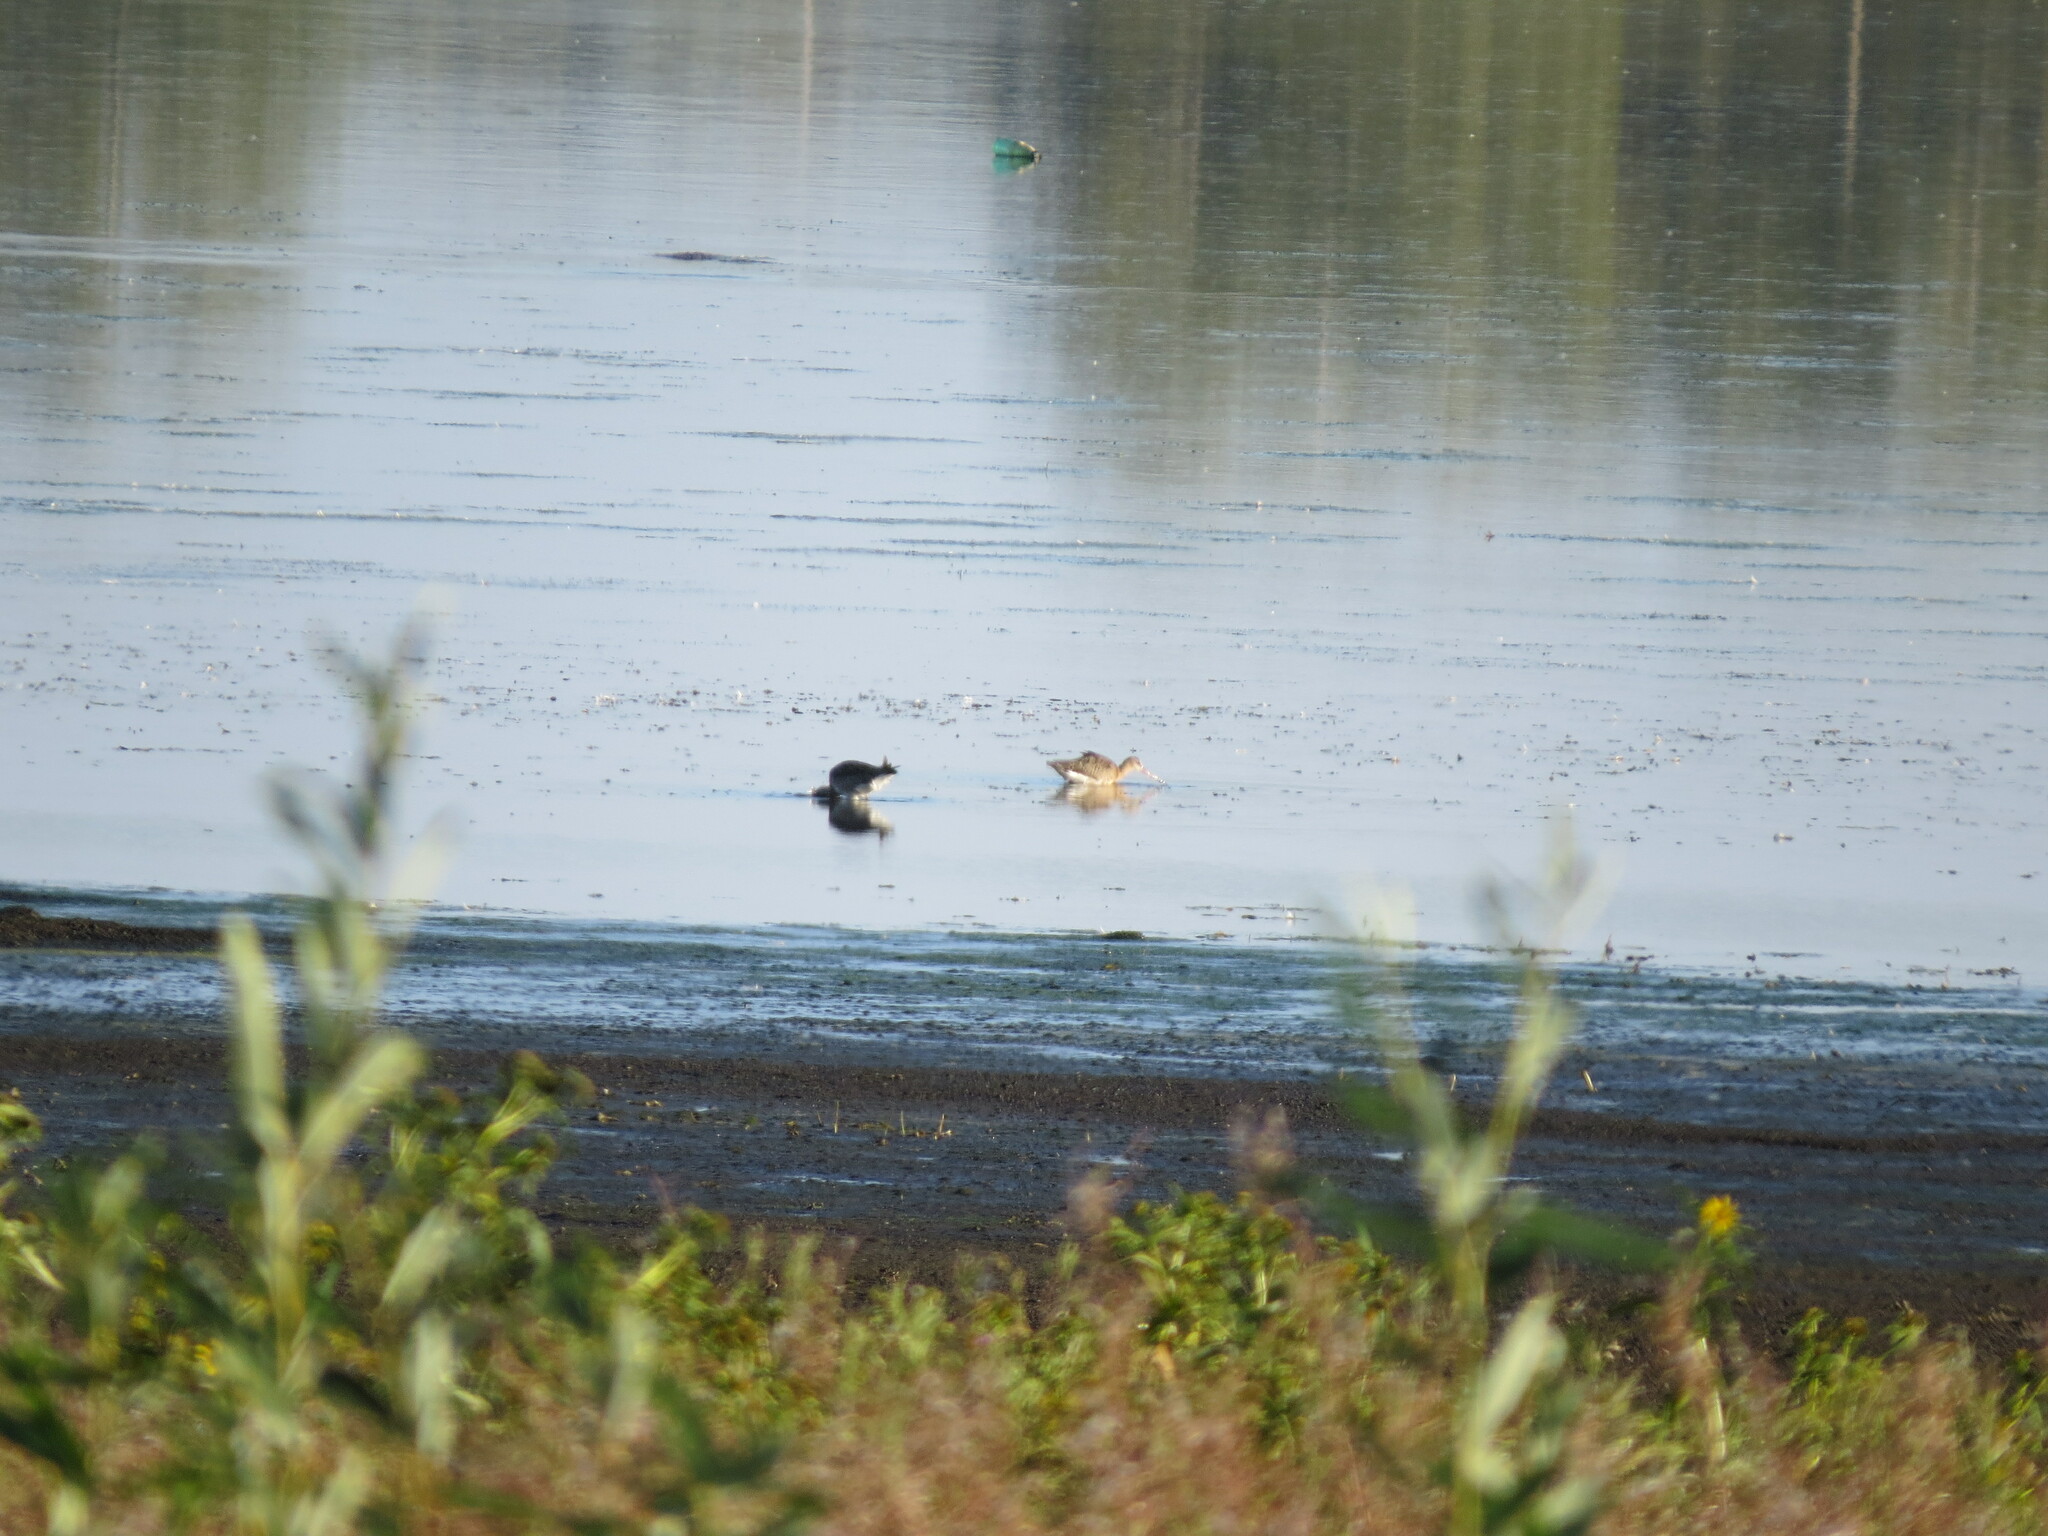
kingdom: Animalia
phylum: Chordata
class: Aves
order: Charadriiformes
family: Scolopacidae
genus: Limosa
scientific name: Limosa limosa
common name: Black-tailed godwit
